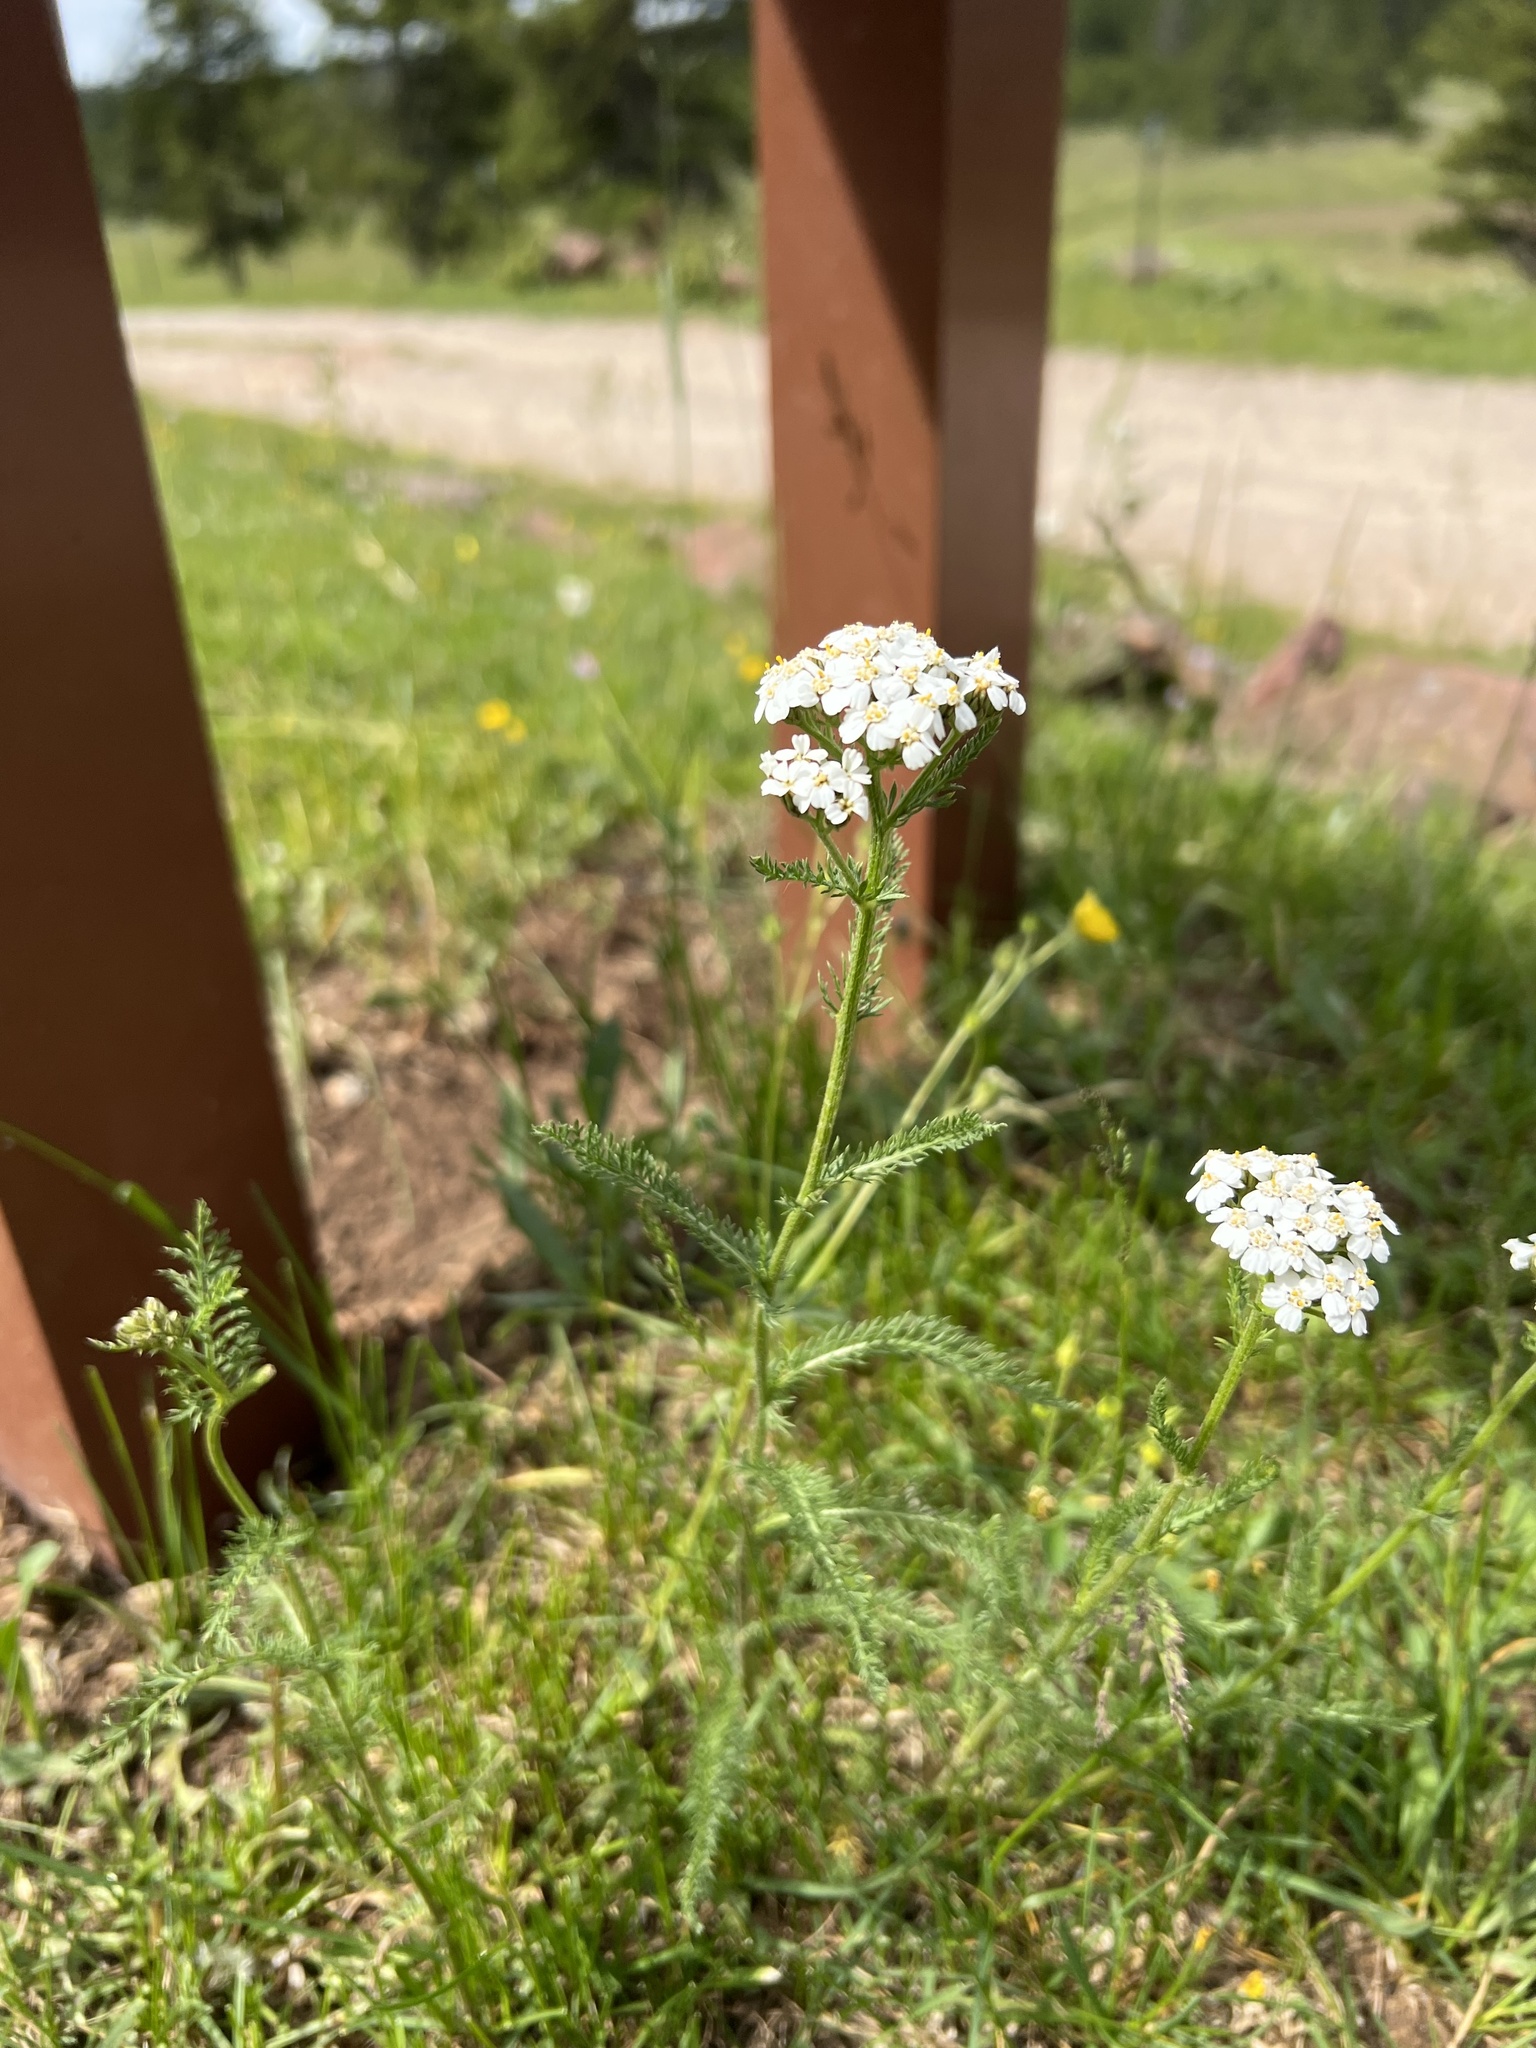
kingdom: Plantae
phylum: Tracheophyta
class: Magnoliopsida
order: Asterales
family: Asteraceae
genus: Achillea
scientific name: Achillea millefolium
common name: Yarrow
